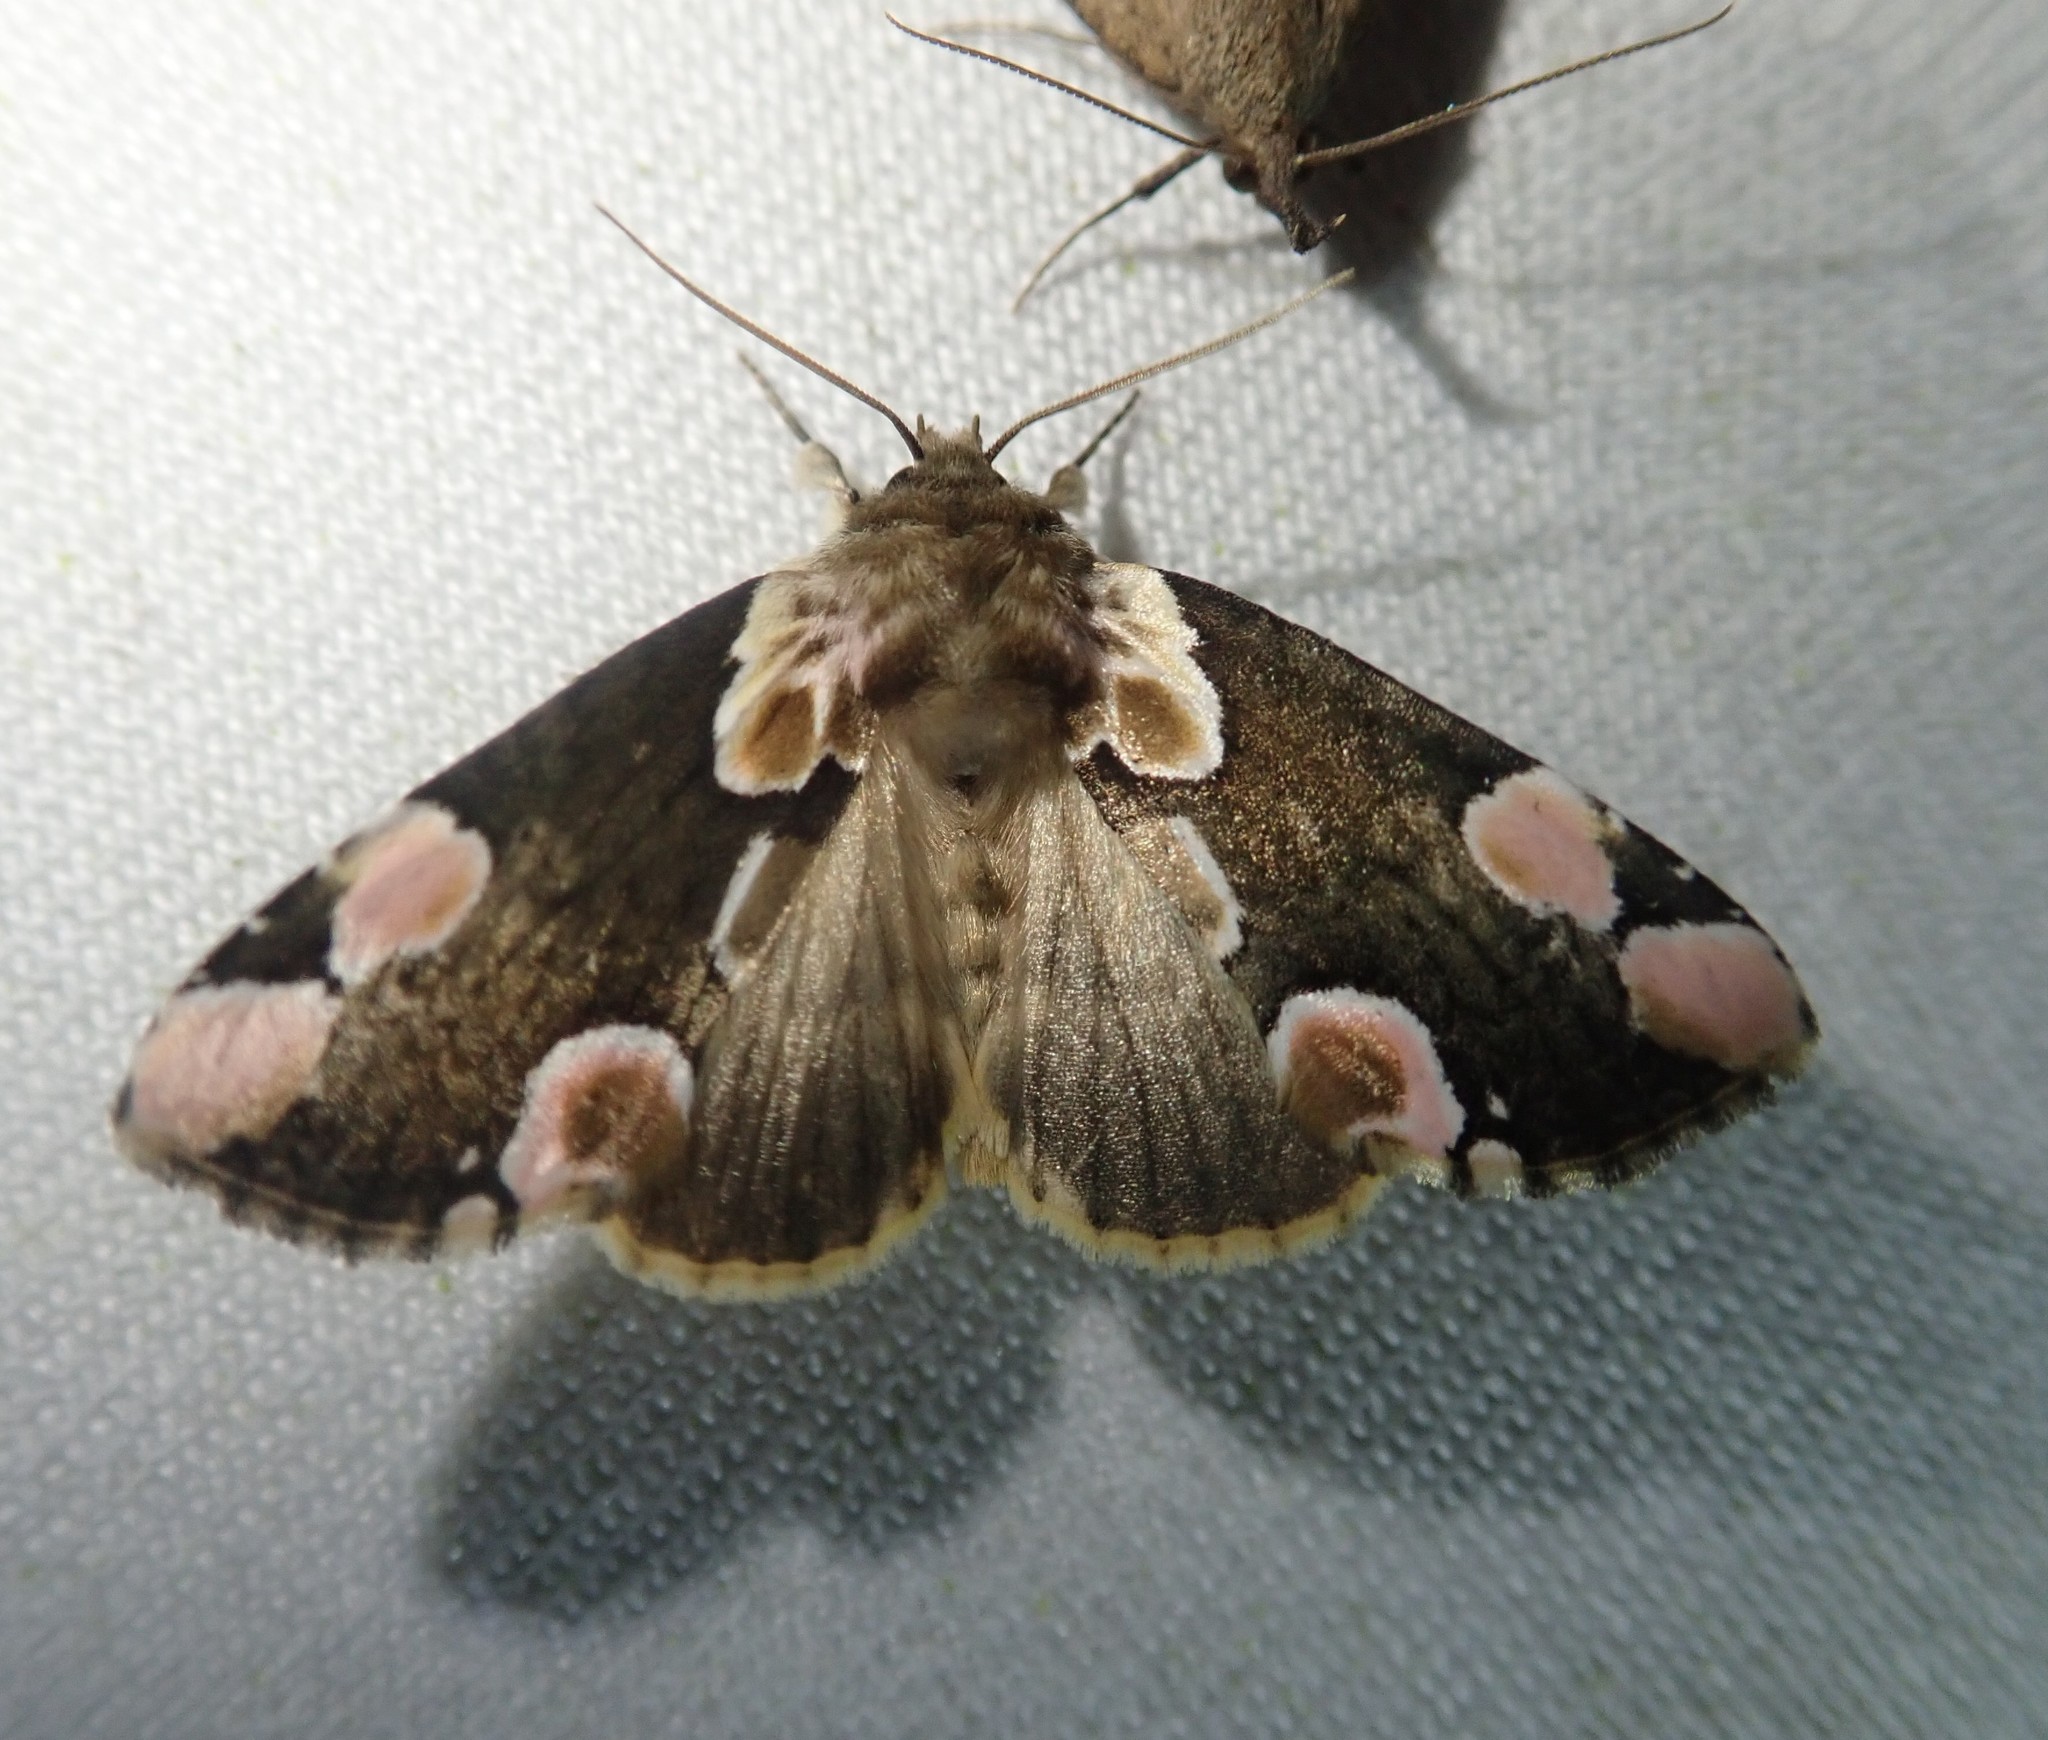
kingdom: Animalia
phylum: Arthropoda
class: Insecta
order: Lepidoptera
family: Drepanidae
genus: Thyatira
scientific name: Thyatira batis
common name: Peach blossom
